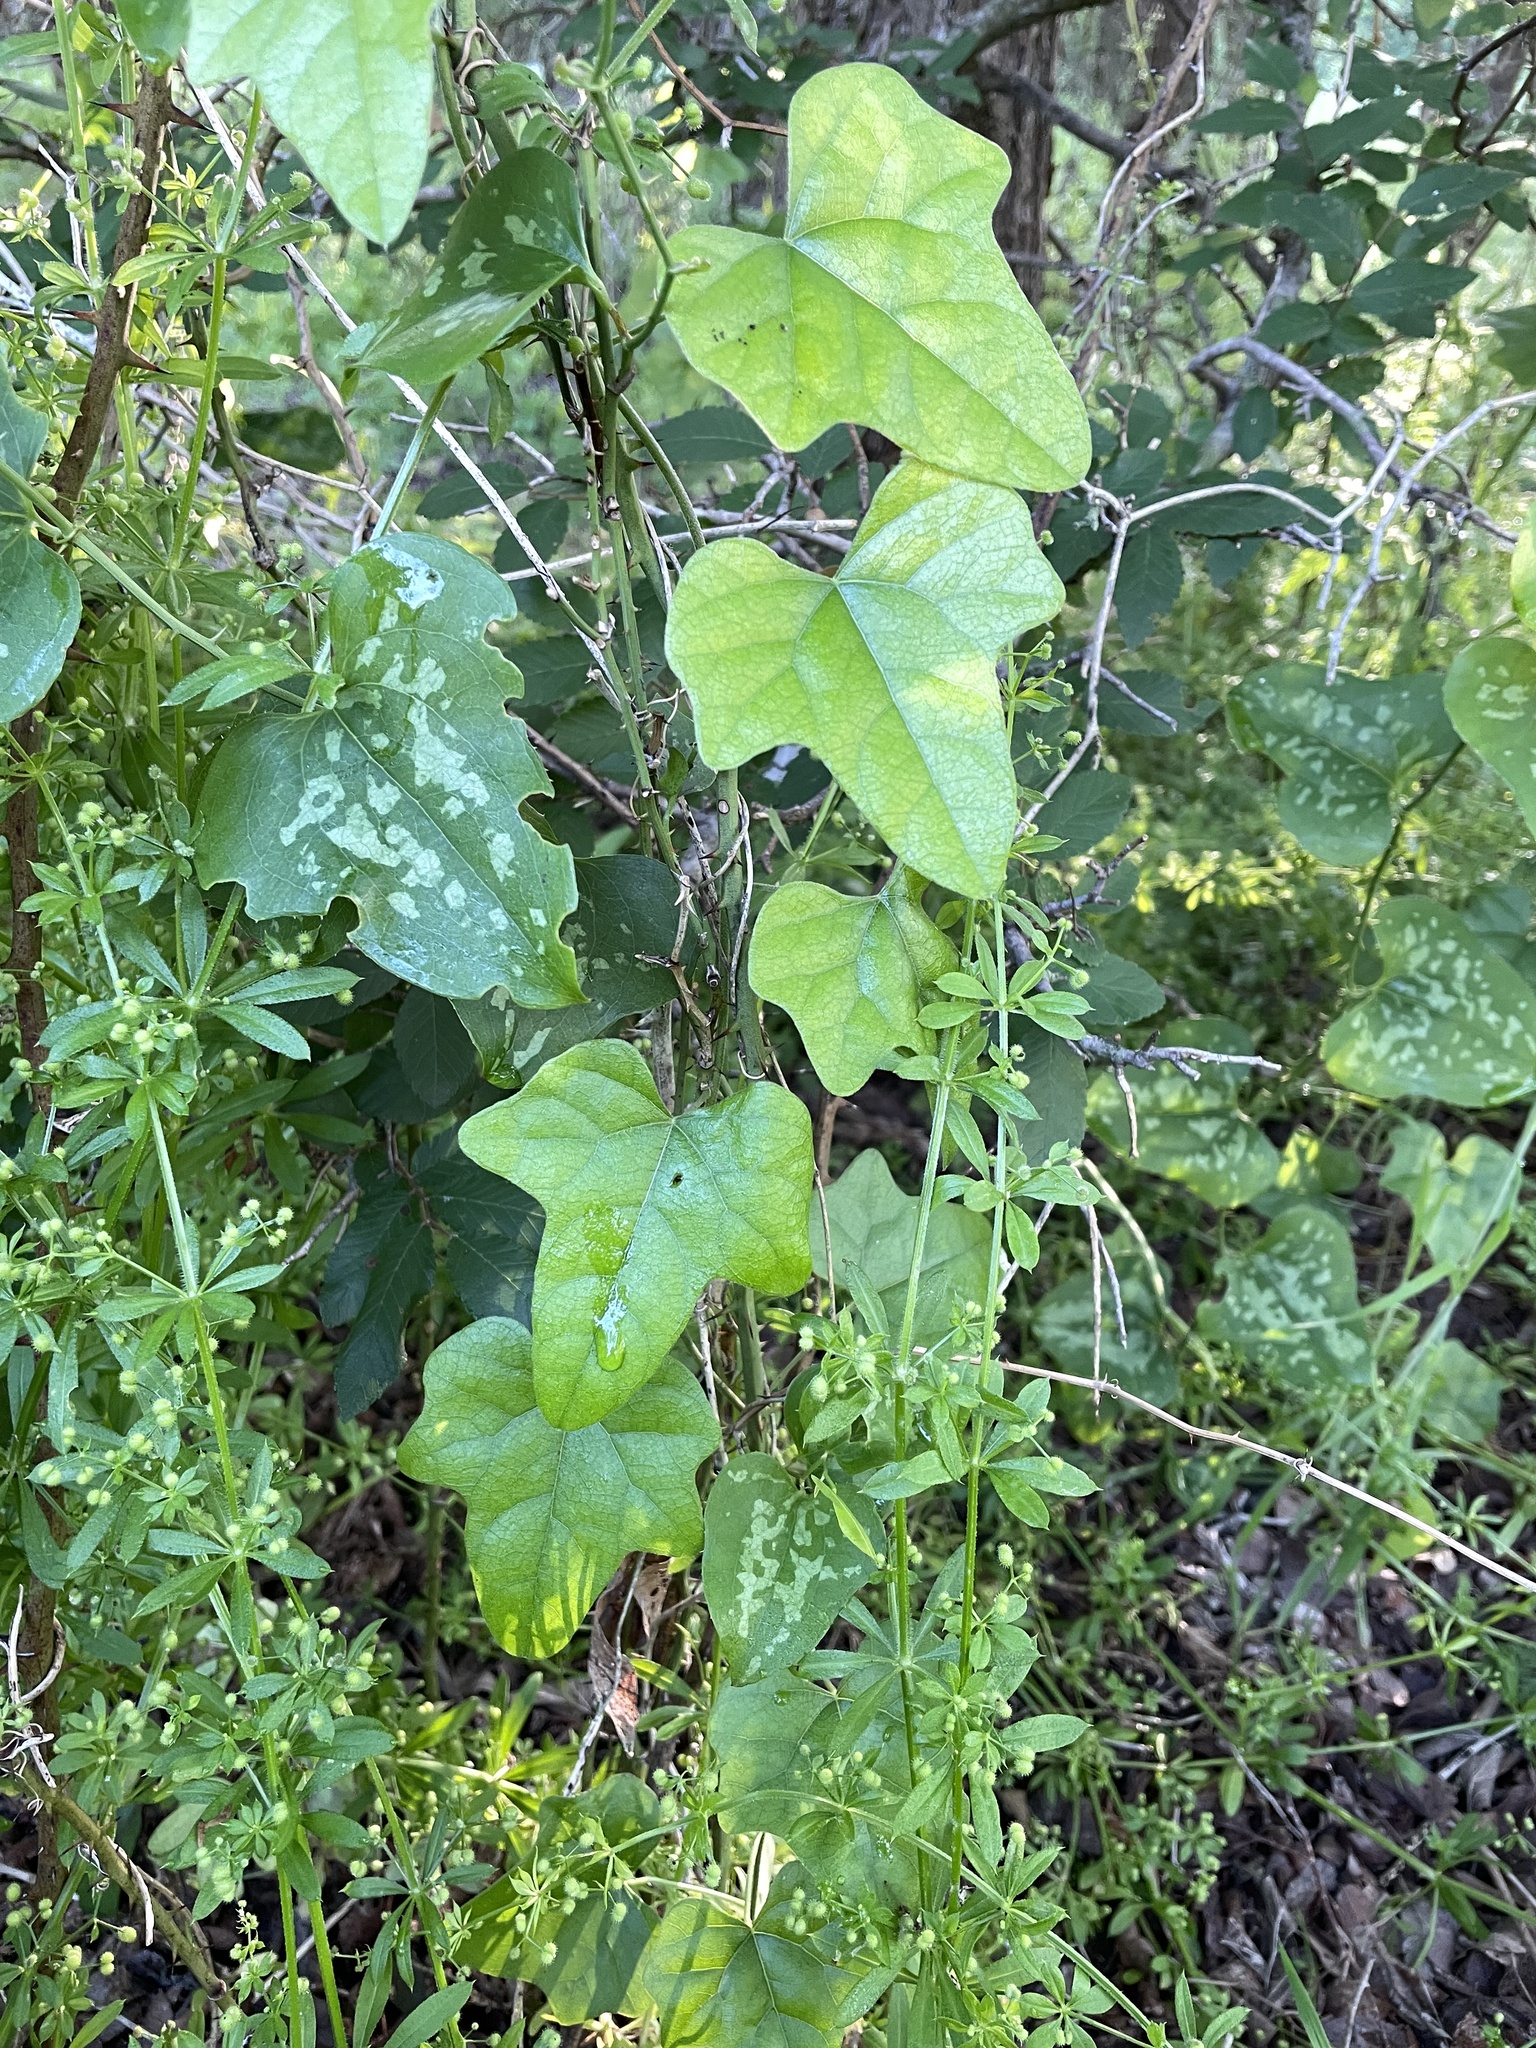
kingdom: Plantae
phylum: Tracheophyta
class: Magnoliopsida
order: Ranunculales
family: Menispermaceae
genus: Cocculus
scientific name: Cocculus carolinus
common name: Carolina moonseed
